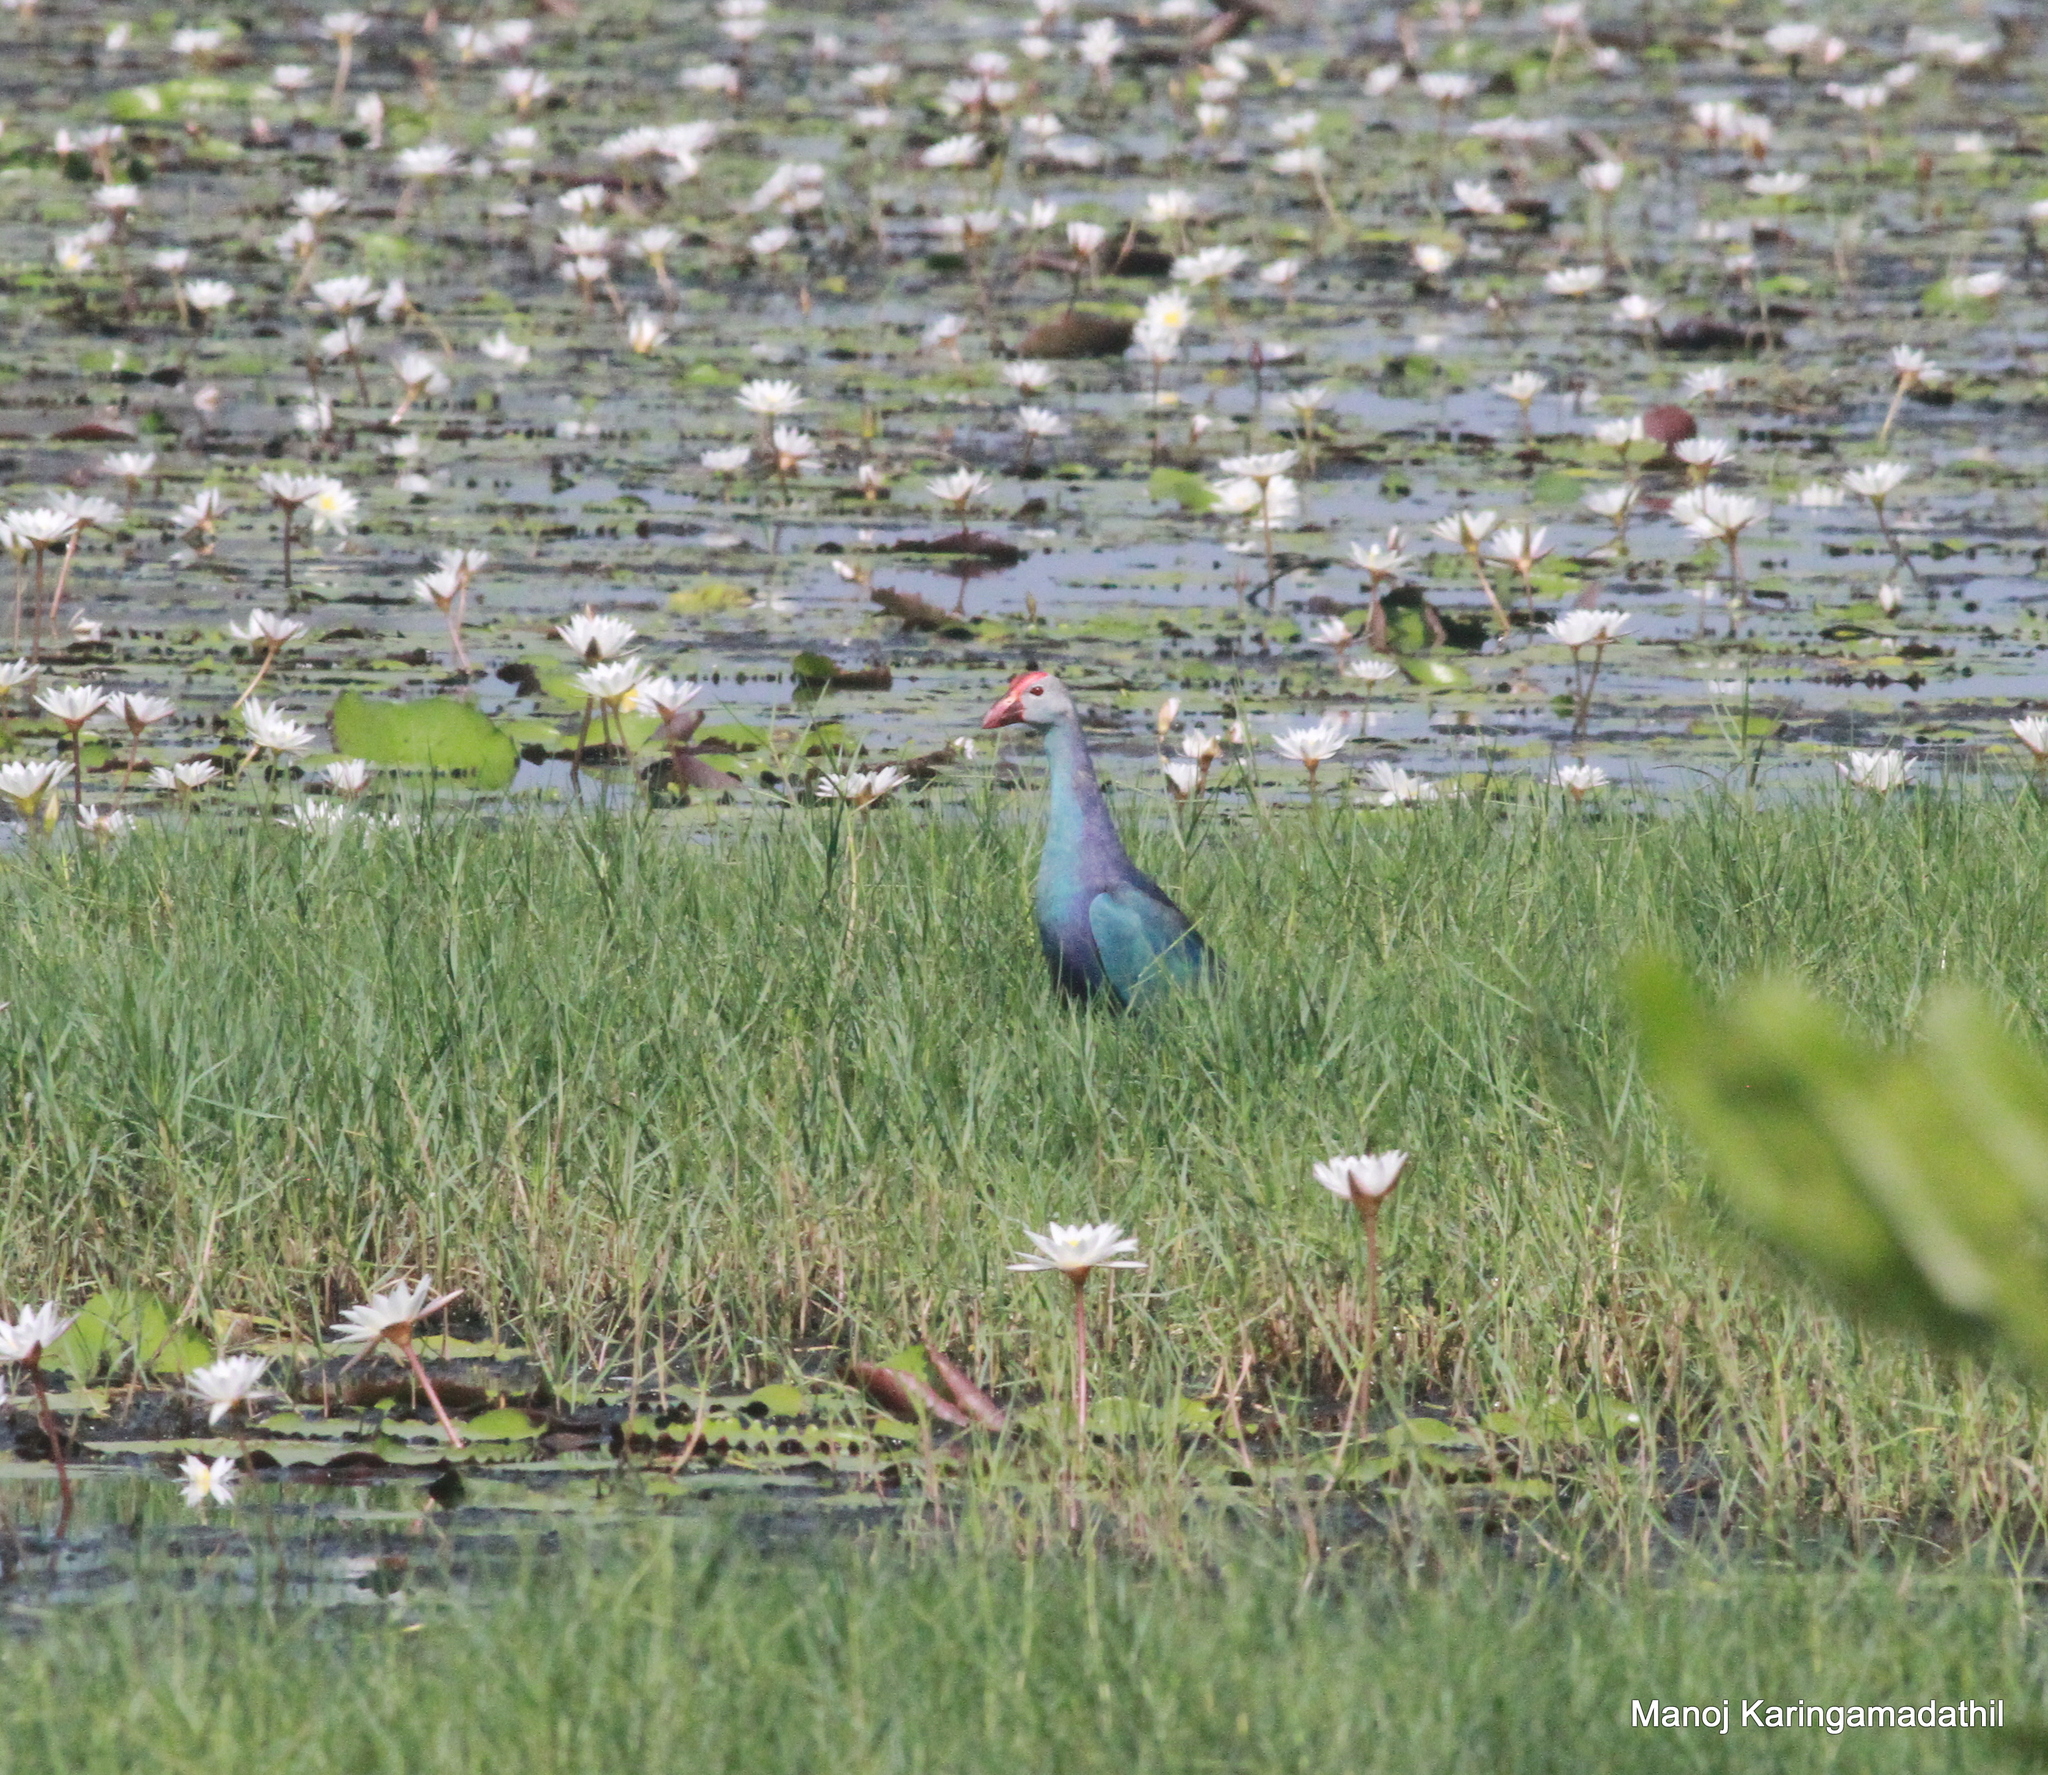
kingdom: Animalia
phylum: Chordata
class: Aves
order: Gruiformes
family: Rallidae
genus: Porphyrio
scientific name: Porphyrio porphyrio
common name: Purple swamphen
